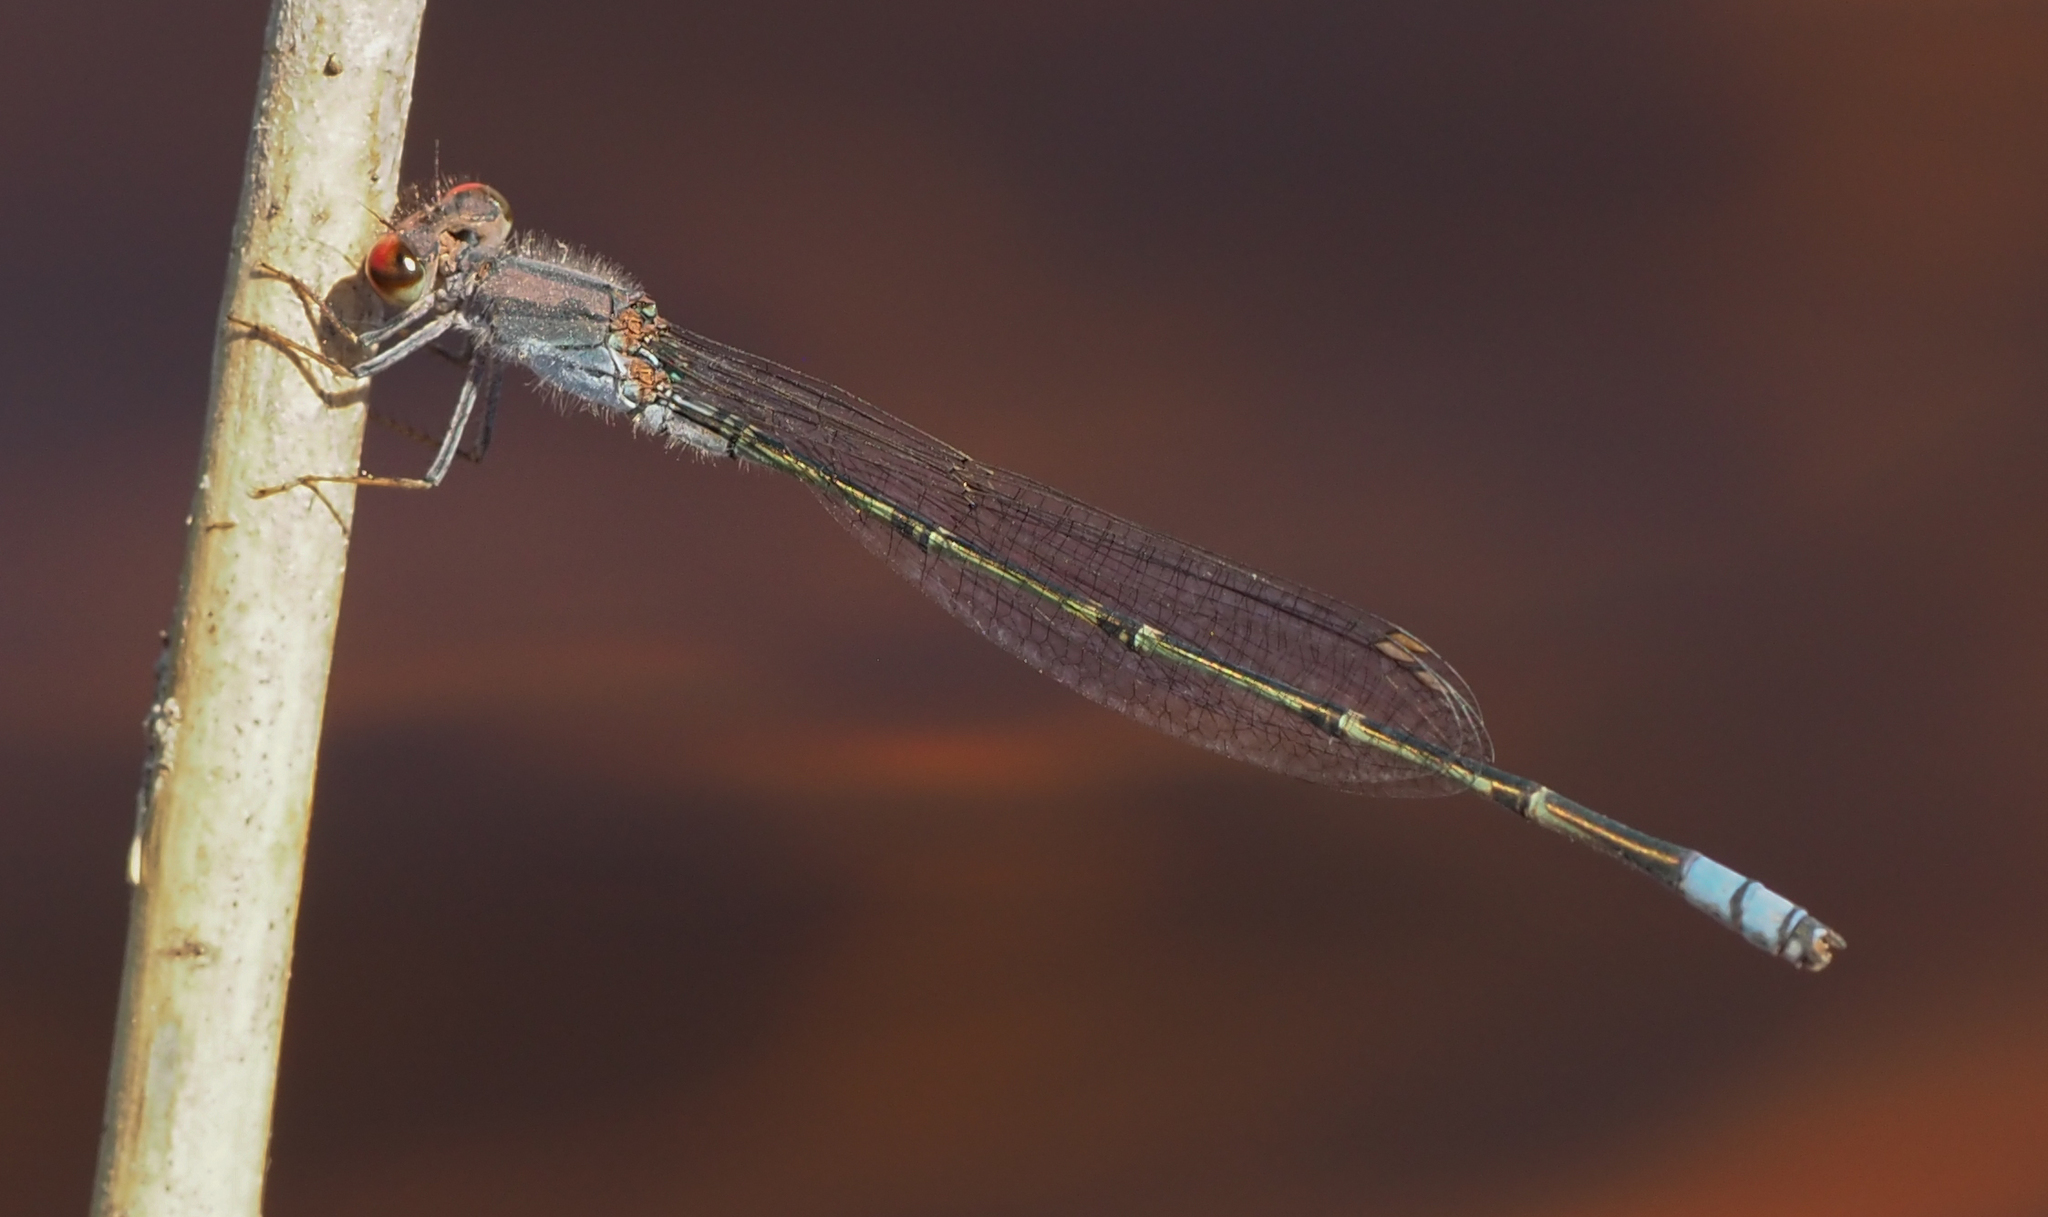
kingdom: Animalia
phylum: Arthropoda
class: Insecta
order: Odonata
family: Coenagrionidae
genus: Pseudagrion
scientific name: Pseudagrion sublacteum
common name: Cherry-eye sprite
